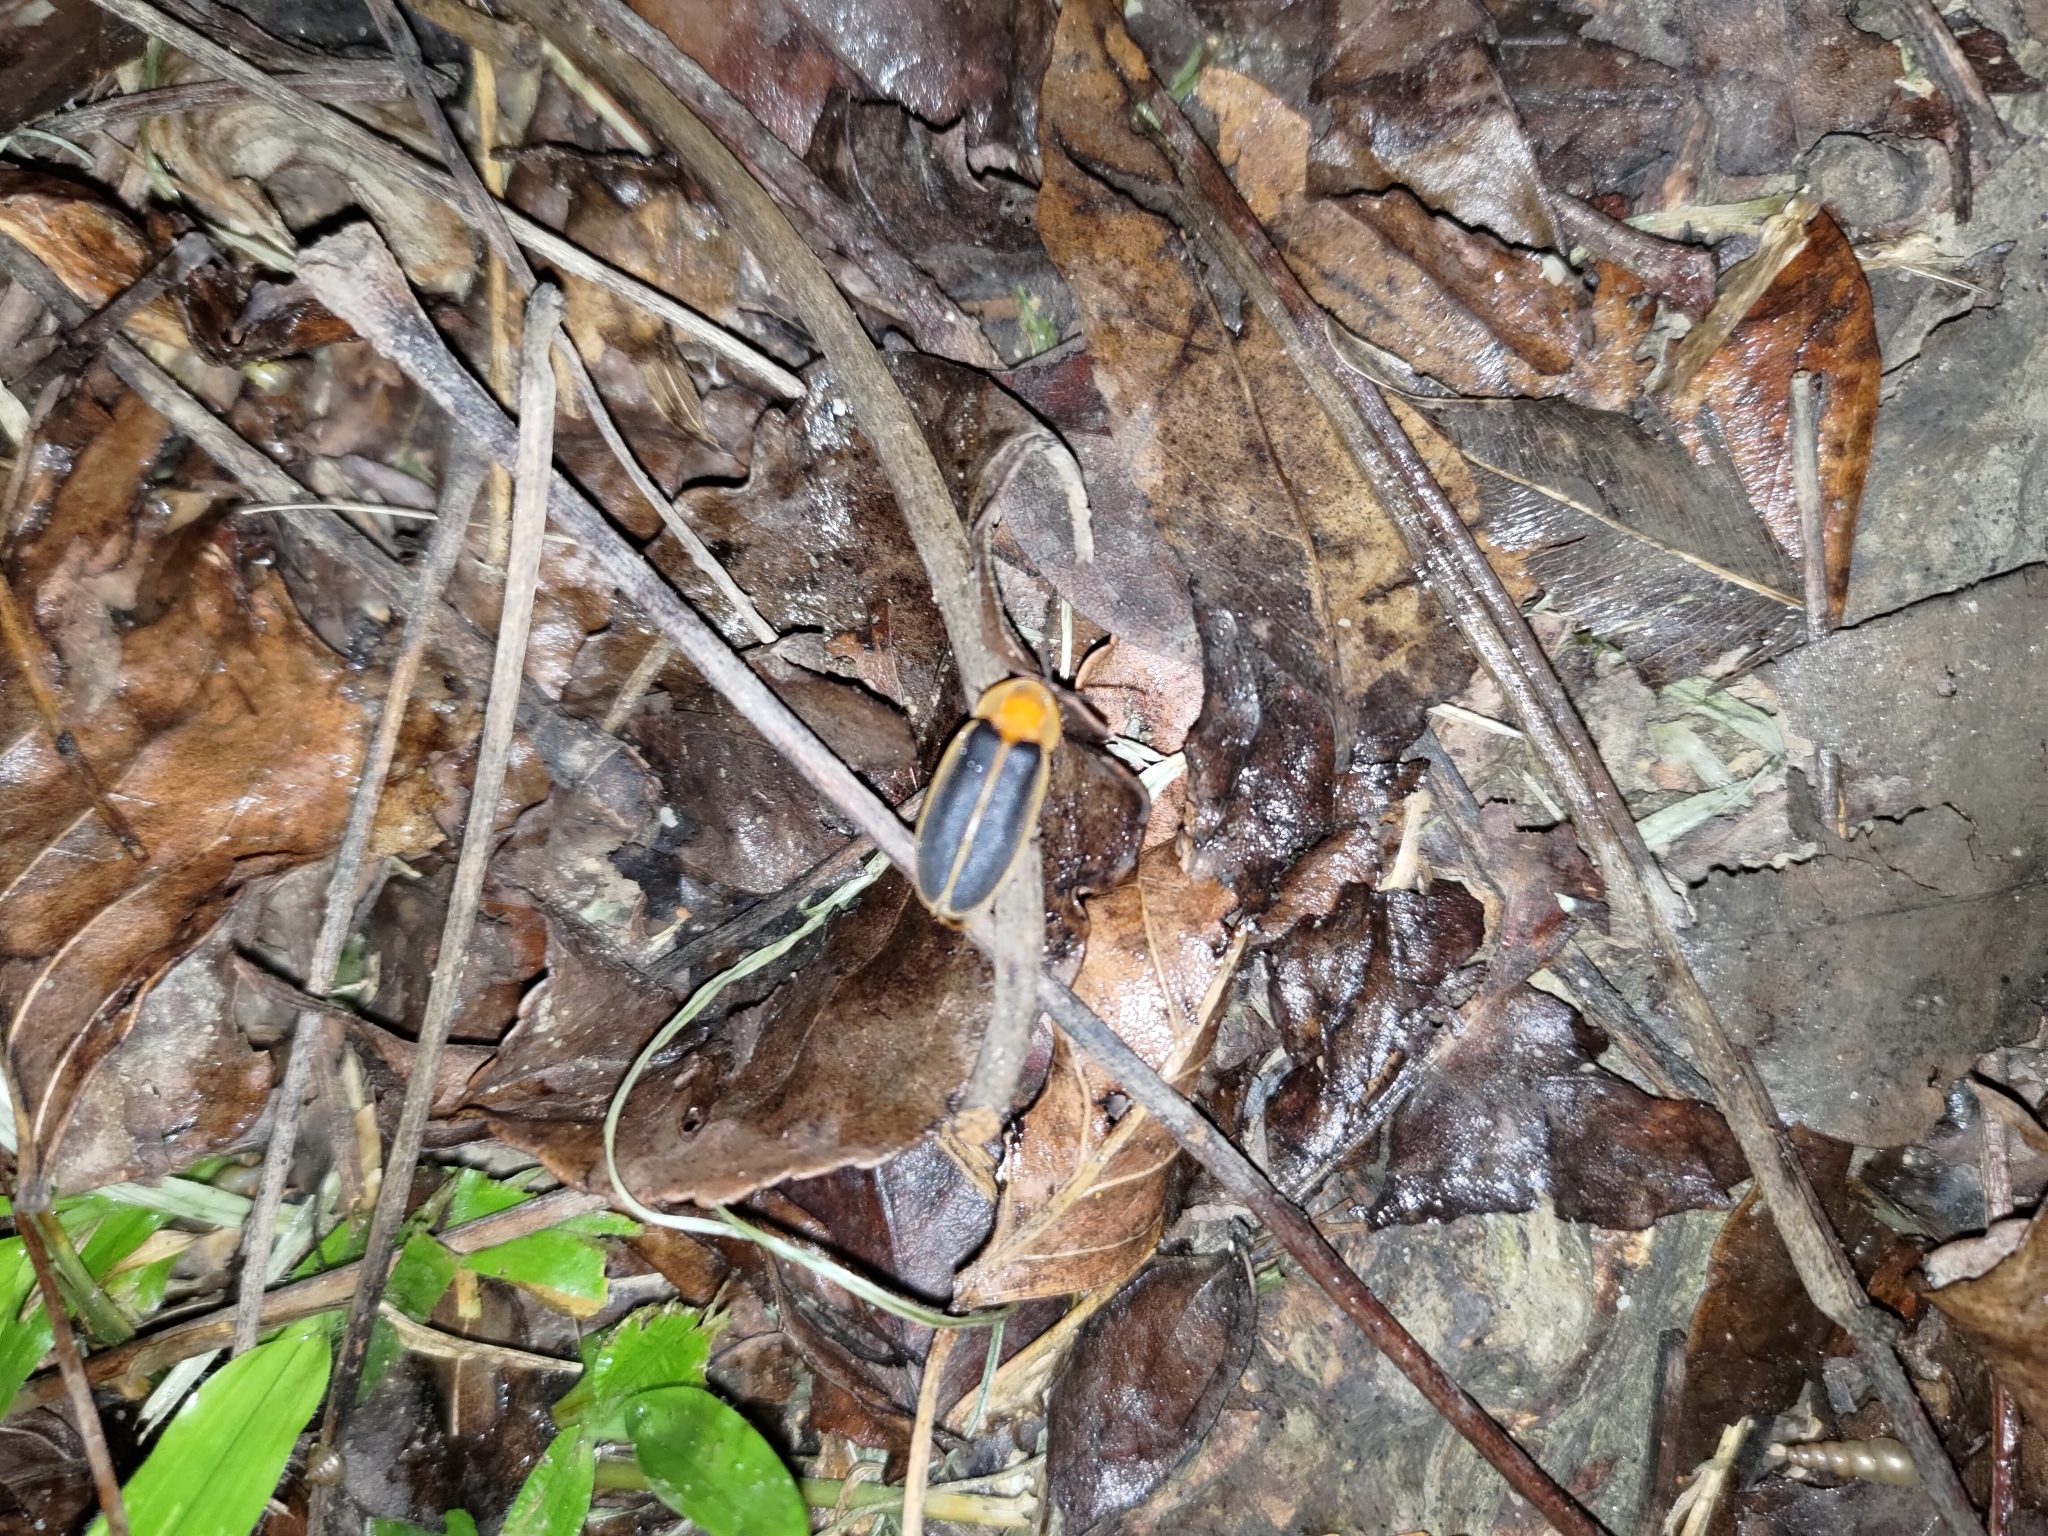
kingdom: Animalia
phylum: Arthropoda
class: Insecta
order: Coleoptera
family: Lampyridae
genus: Pyrocoelia
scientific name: Pyrocoelia analis
